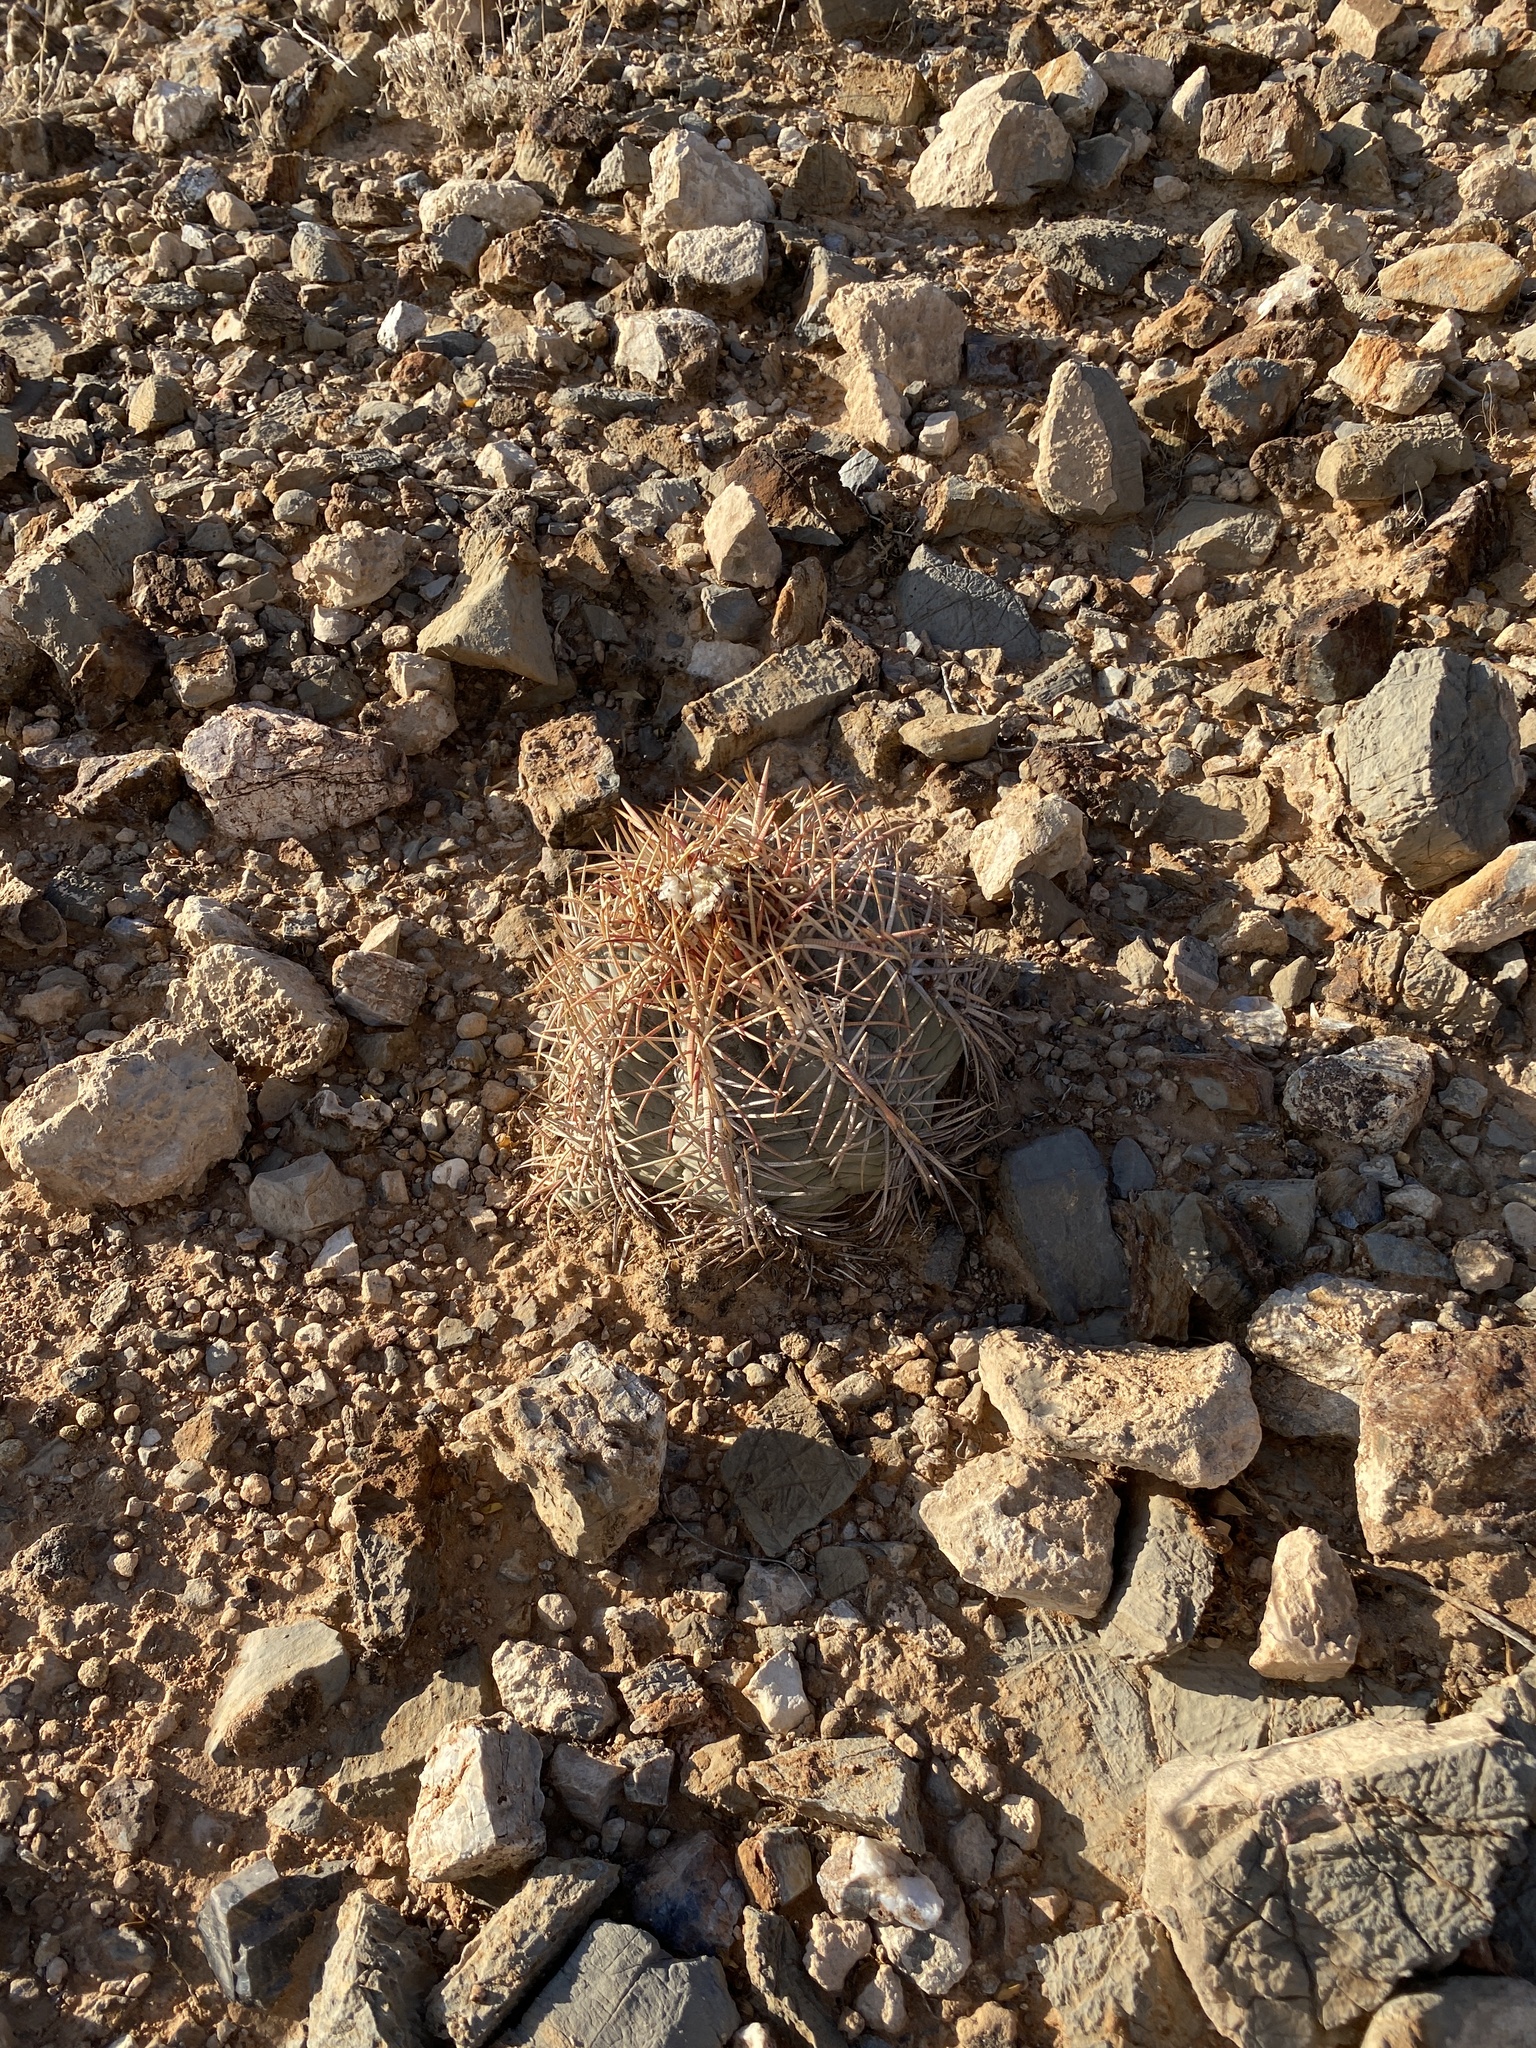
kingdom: Plantae
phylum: Tracheophyta
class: Magnoliopsida
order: Caryophyllales
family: Cactaceae
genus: Echinocactus
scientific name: Echinocactus horizonthalonius
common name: Devilshead
